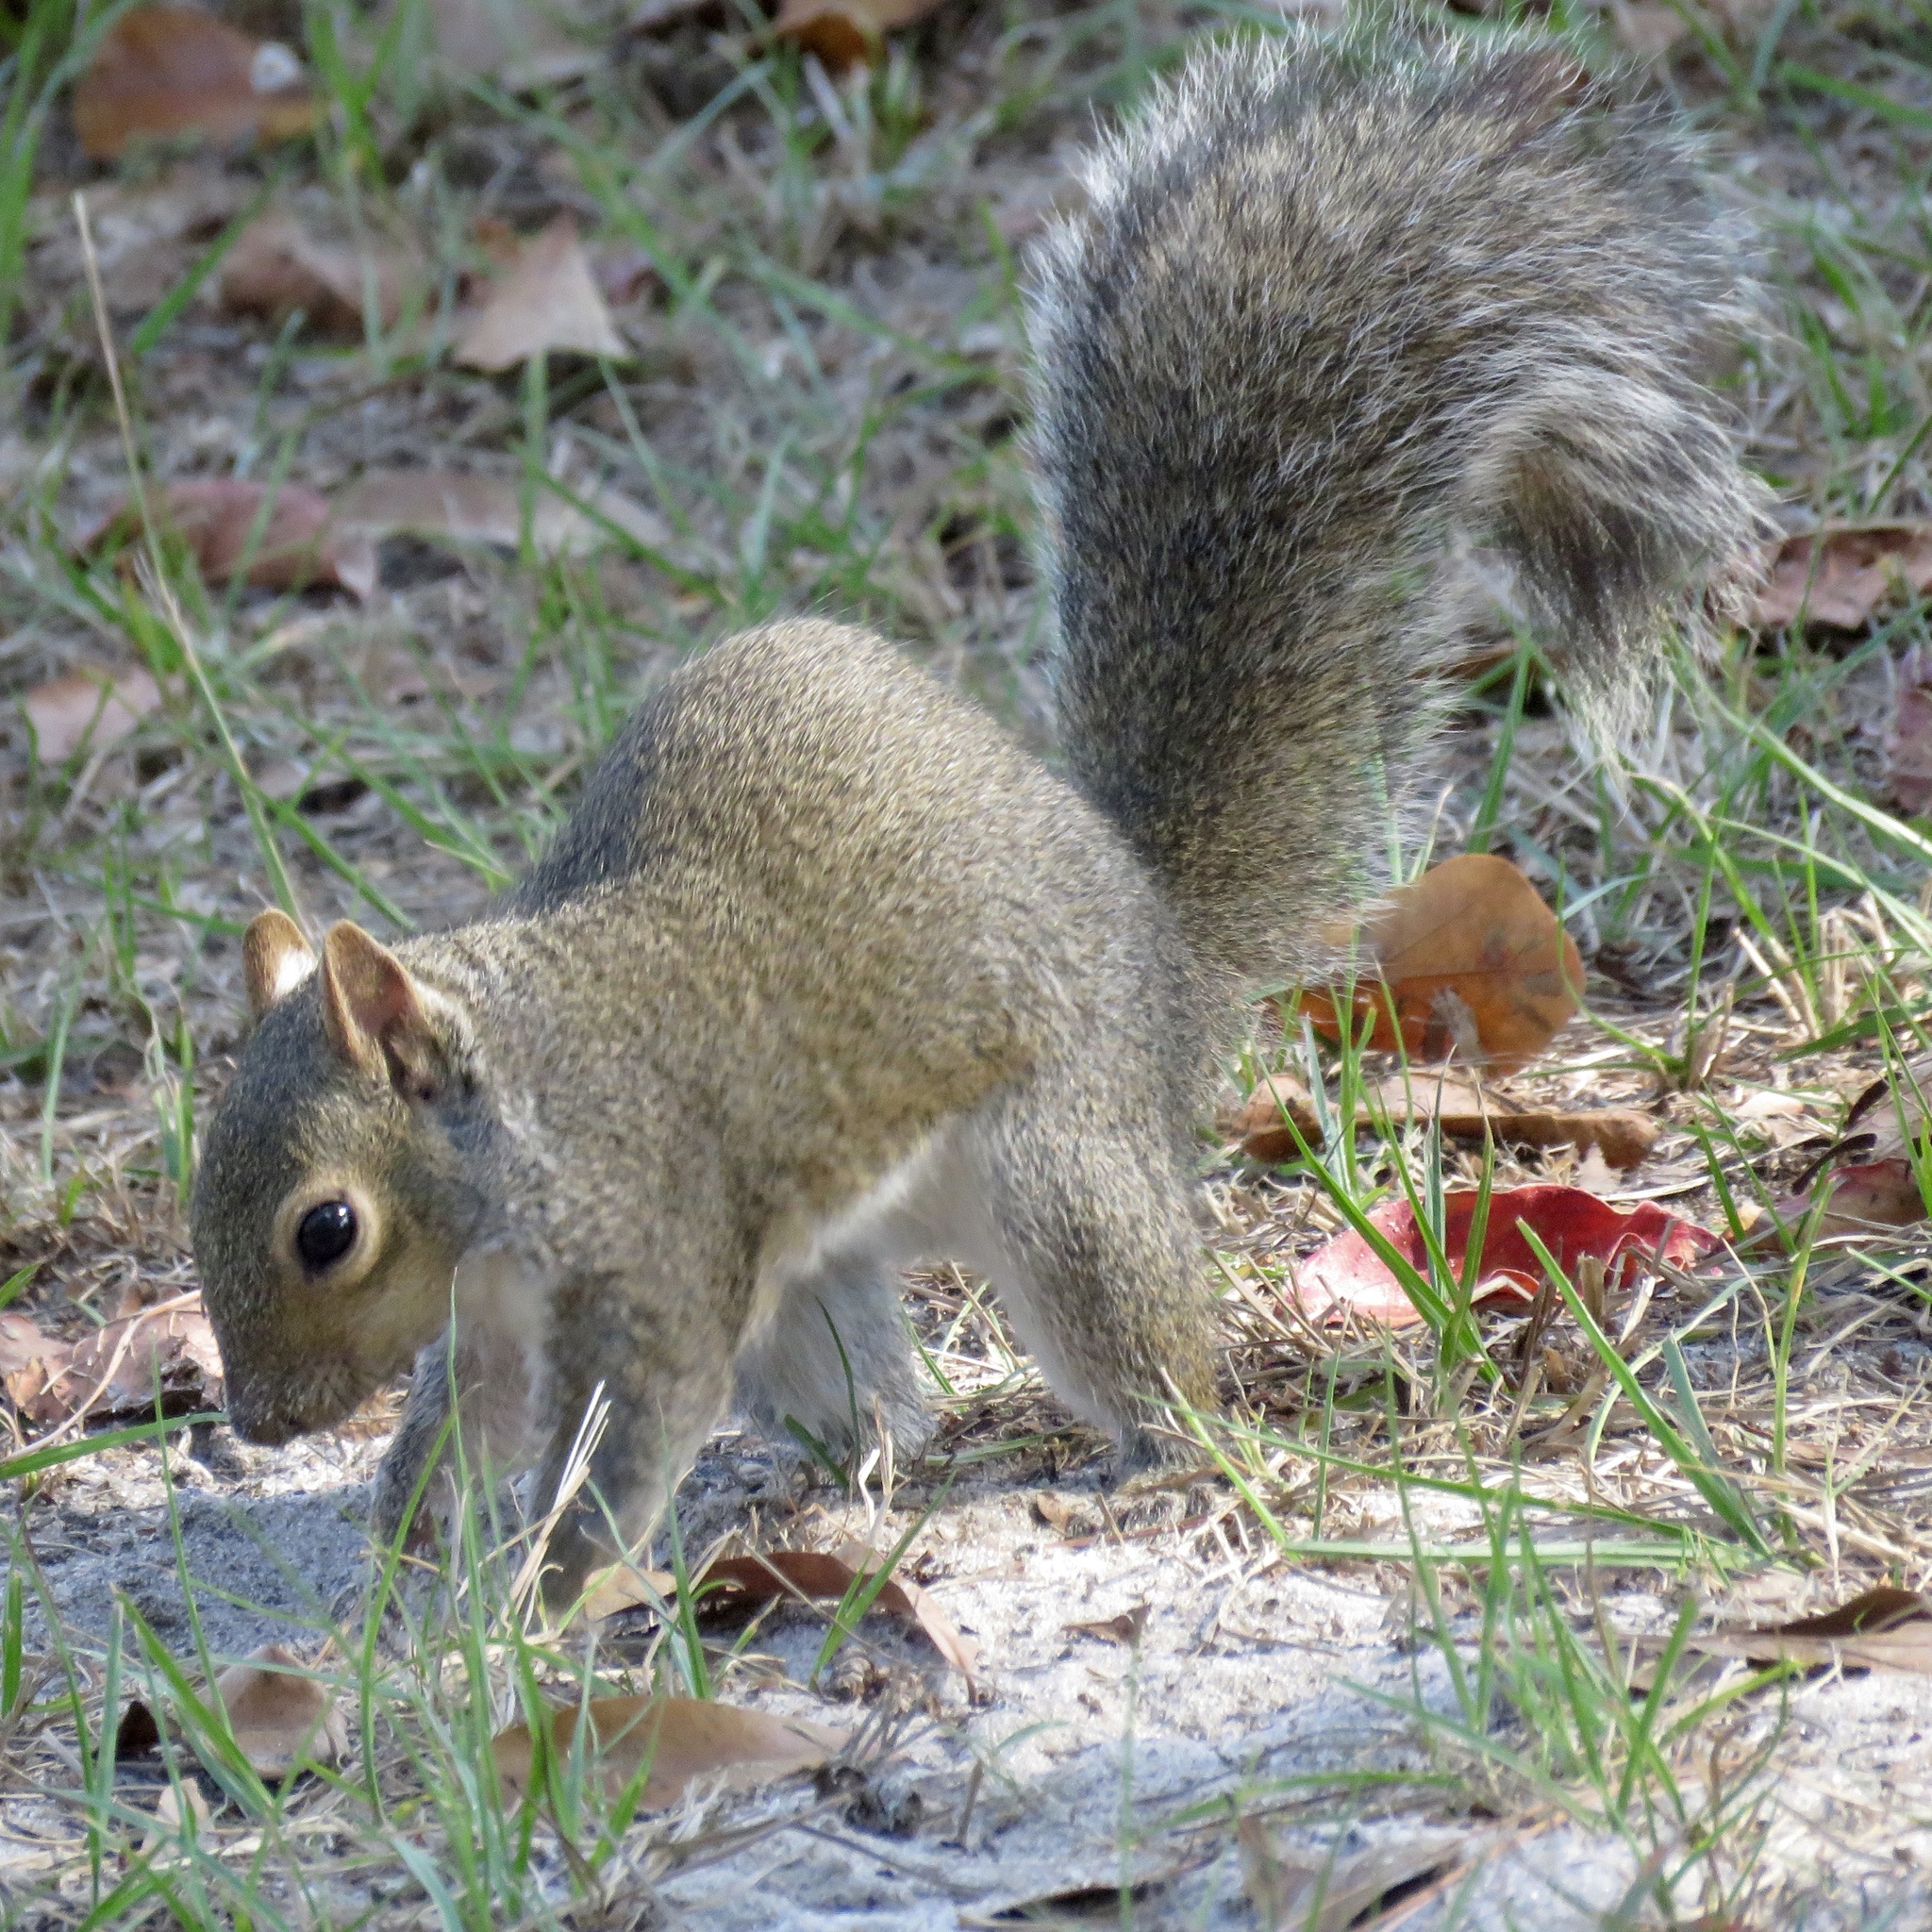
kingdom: Animalia
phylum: Chordata
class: Mammalia
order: Rodentia
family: Sciuridae
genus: Sciurus
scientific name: Sciurus carolinensis
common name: Eastern gray squirrel
